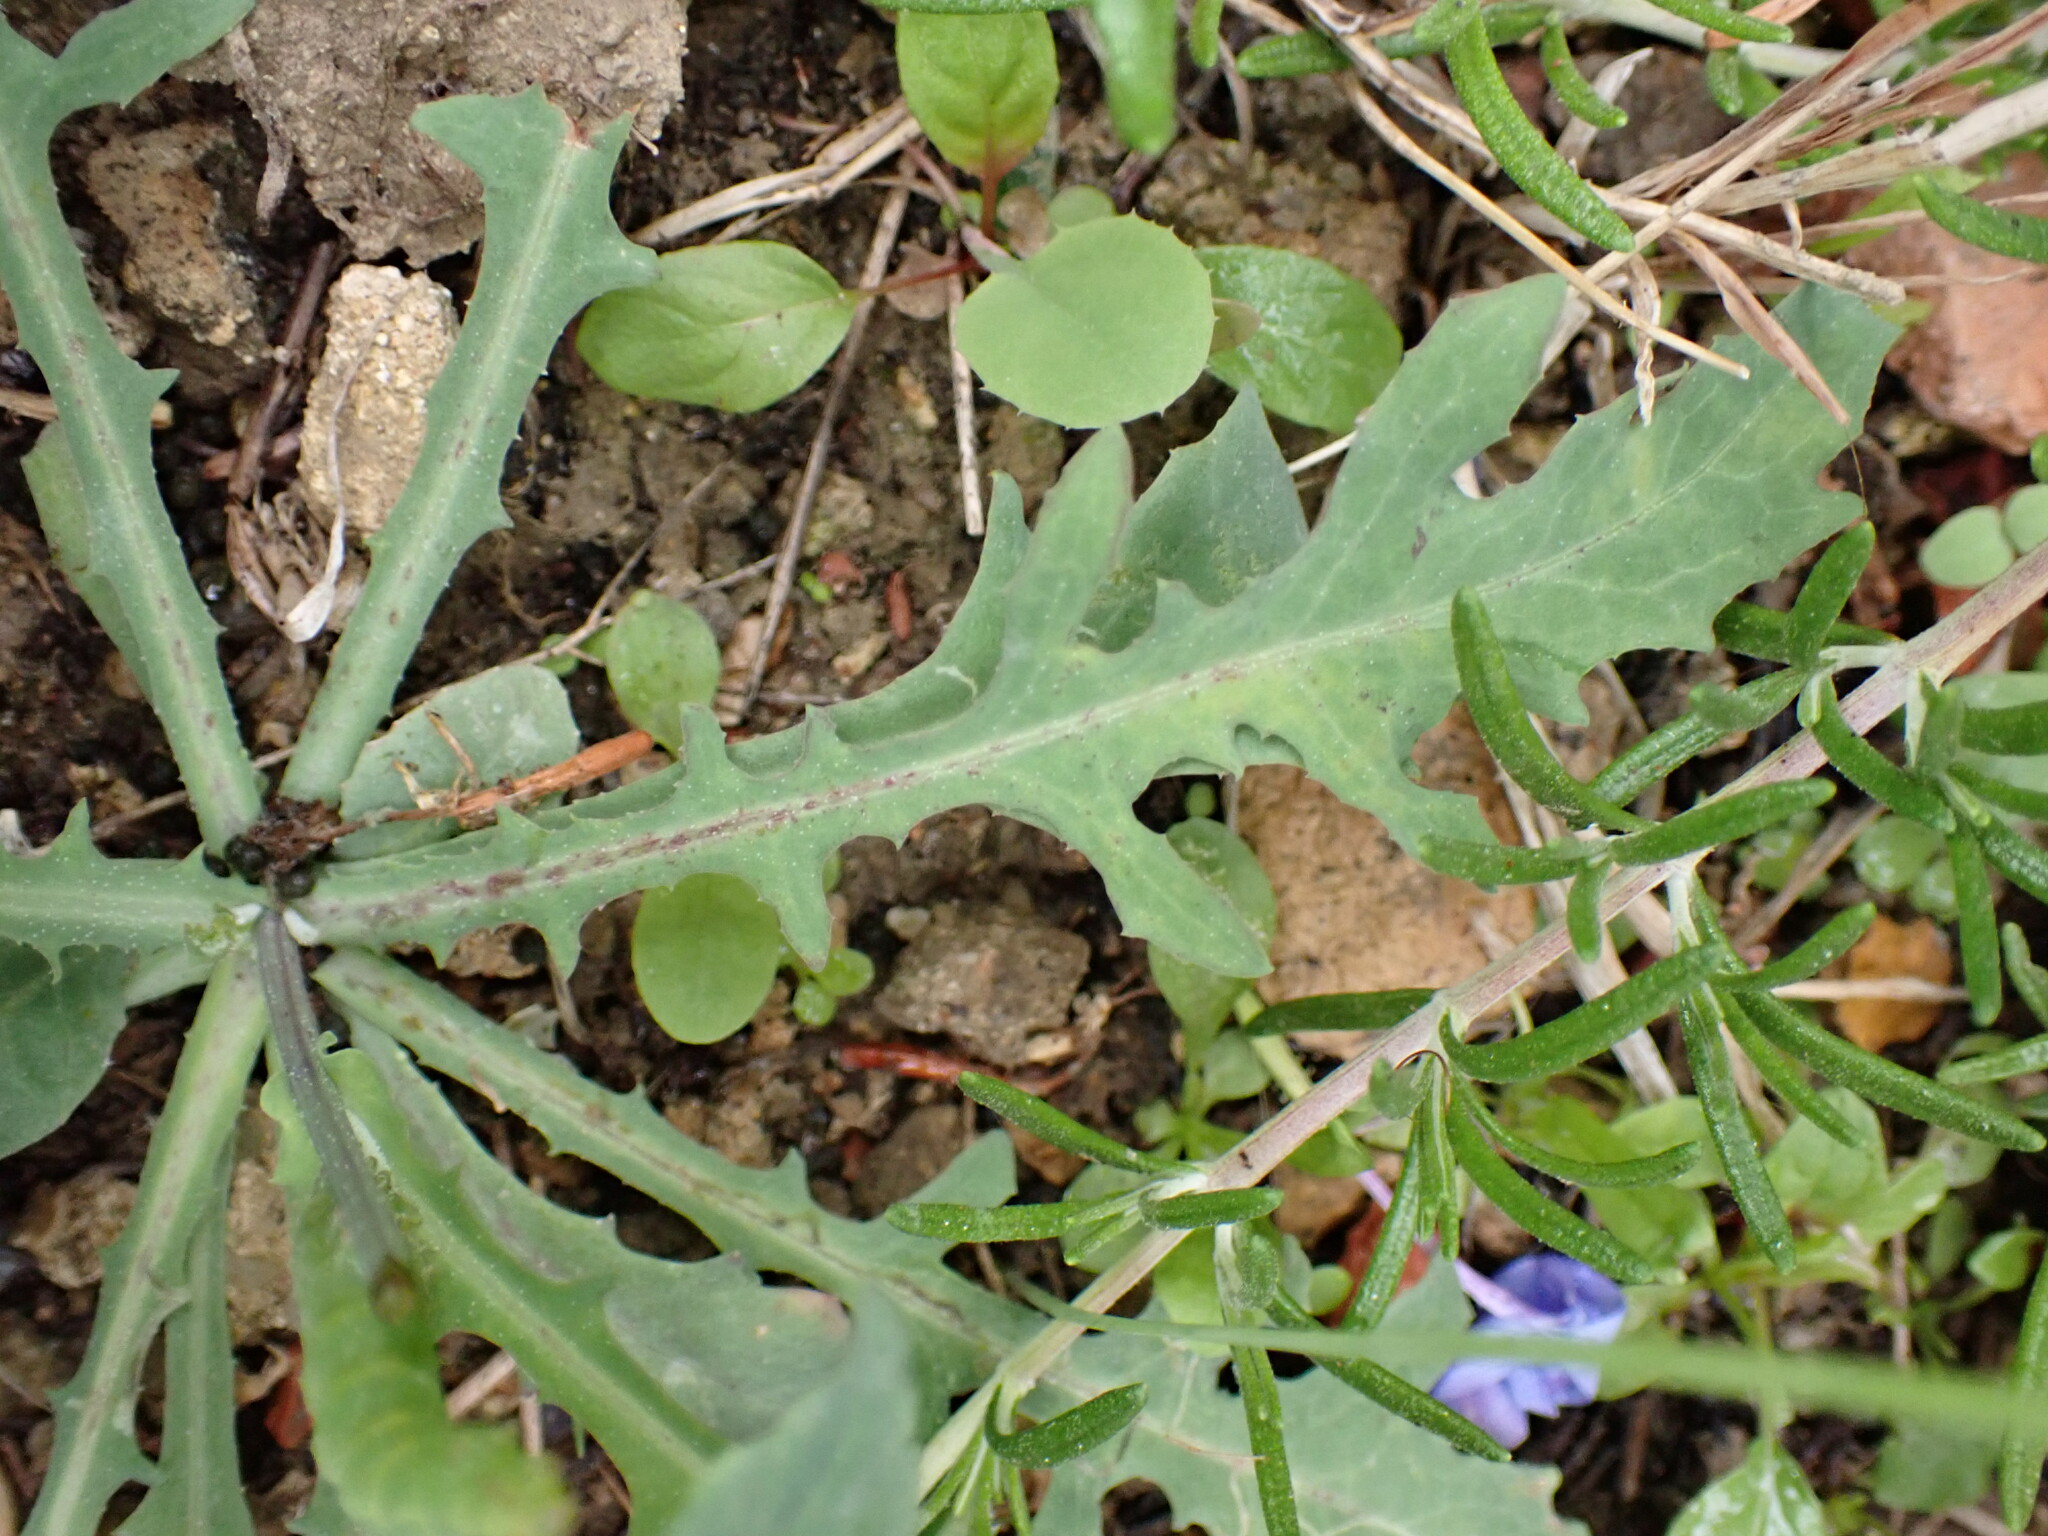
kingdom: Plantae
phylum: Tracheophyta
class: Magnoliopsida
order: Asterales
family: Asteraceae
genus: Reichardia
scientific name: Reichardia picroides
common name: Common brighteyes
